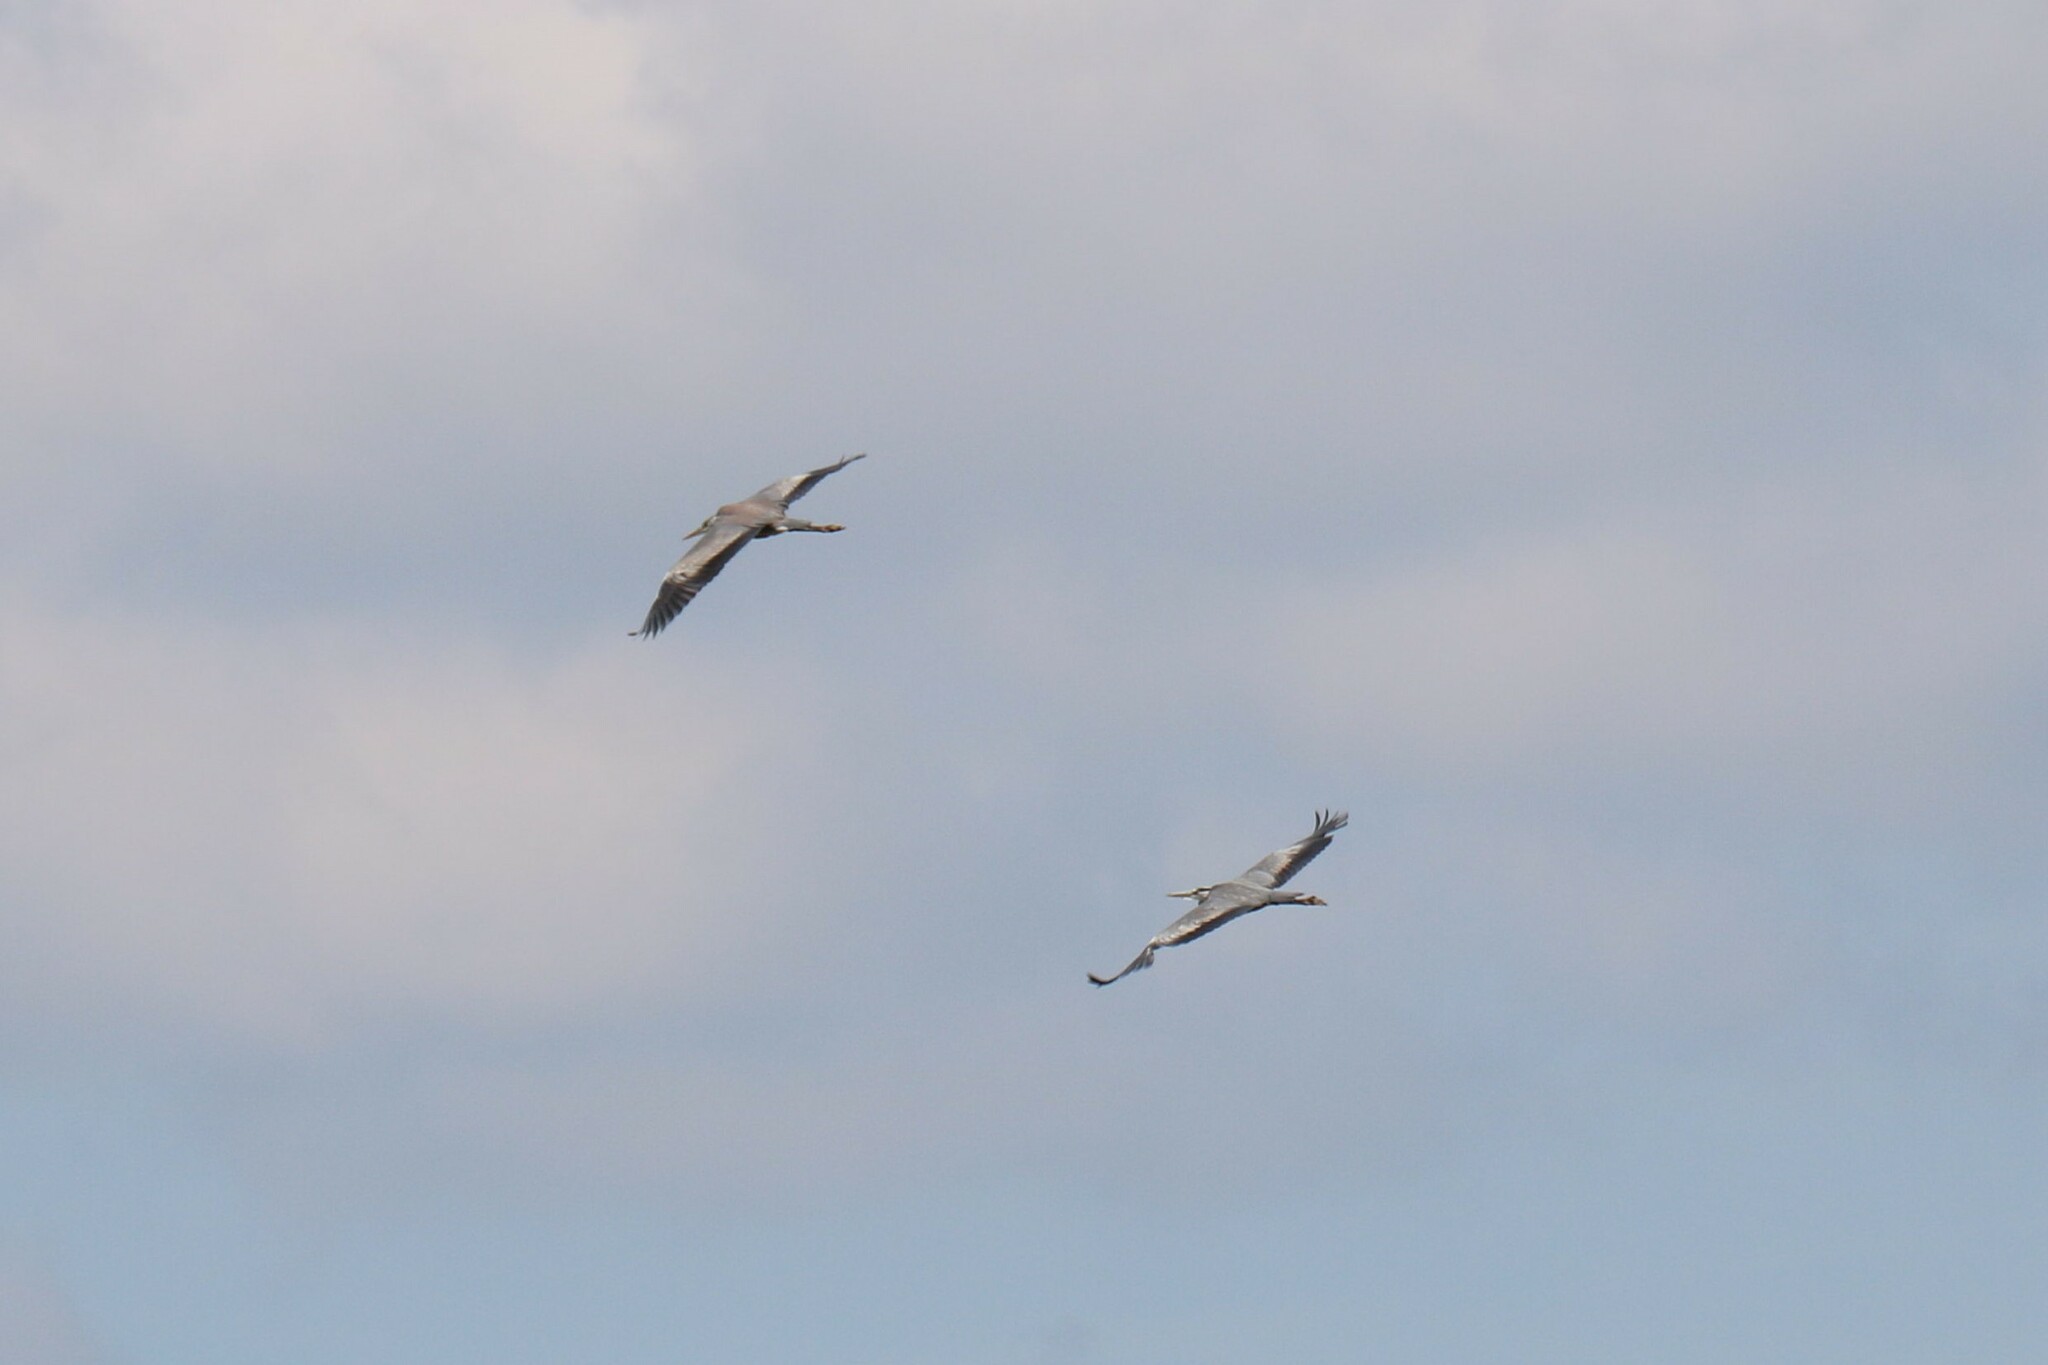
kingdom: Animalia
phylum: Chordata
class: Aves
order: Pelecaniformes
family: Ardeidae
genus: Ardea
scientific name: Ardea cinerea
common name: Grey heron
